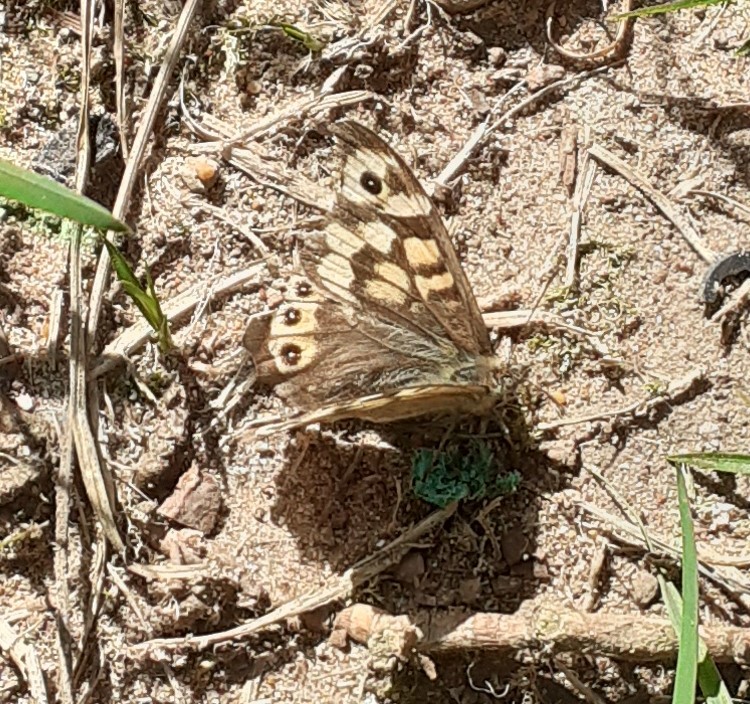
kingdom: Animalia
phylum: Arthropoda
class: Insecta
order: Lepidoptera
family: Nymphalidae
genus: Pararge
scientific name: Pararge aegeria
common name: Speckled wood
